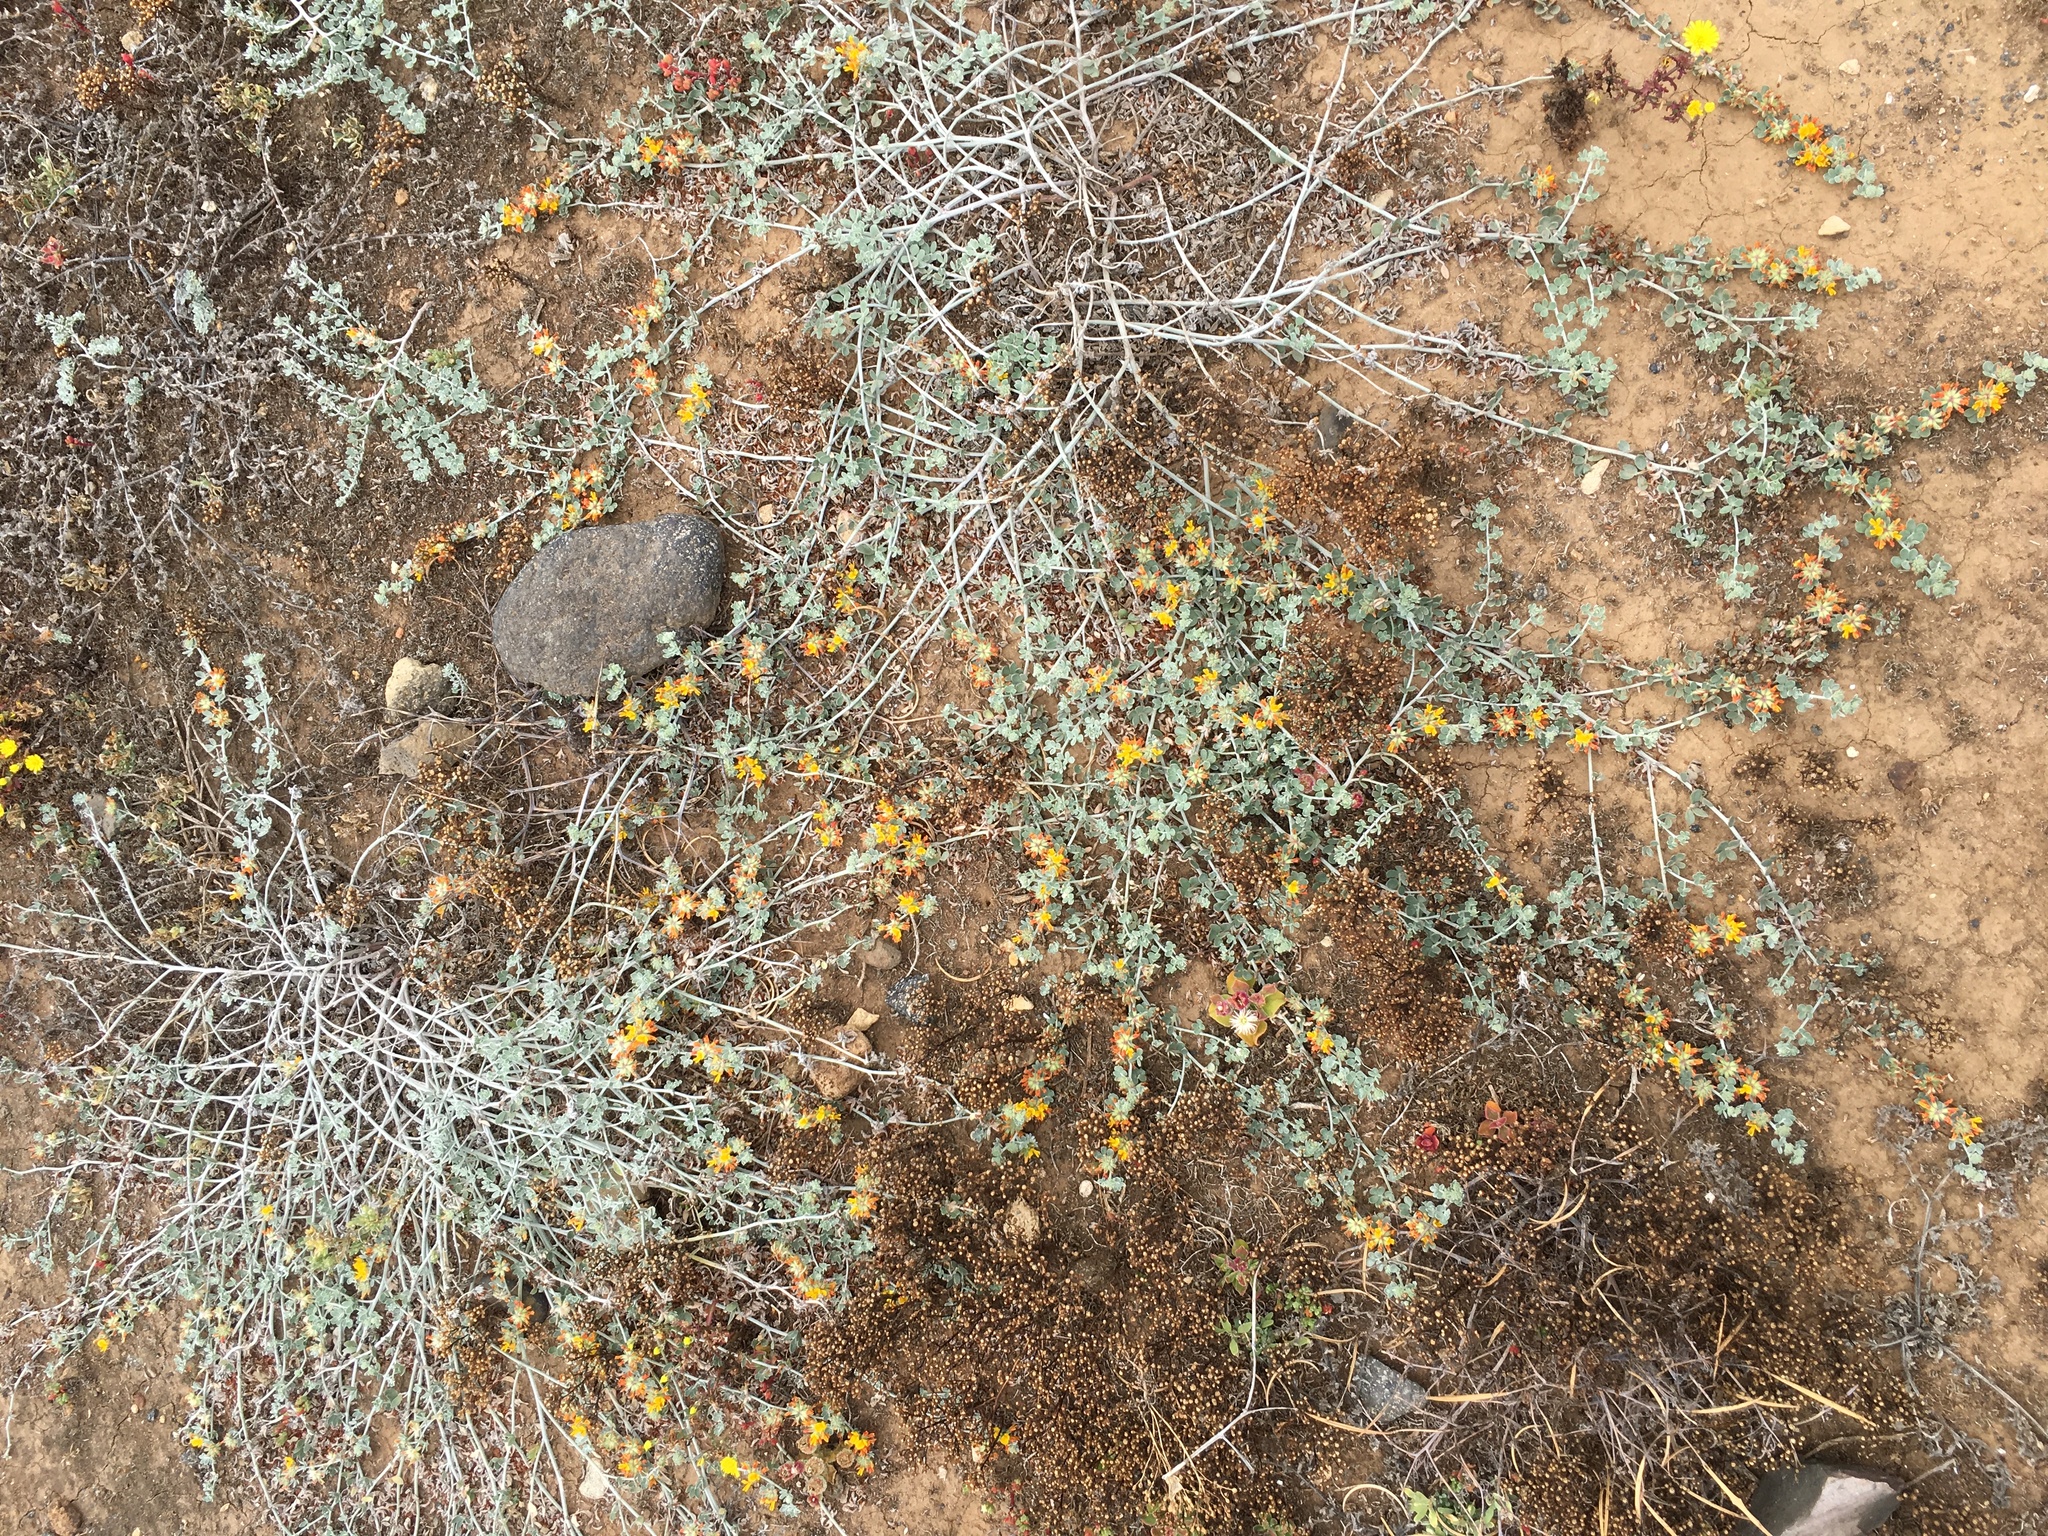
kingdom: Plantae
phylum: Tracheophyta
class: Magnoliopsida
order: Fabales
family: Fabaceae
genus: Acmispon
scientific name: Acmispon argophyllus
